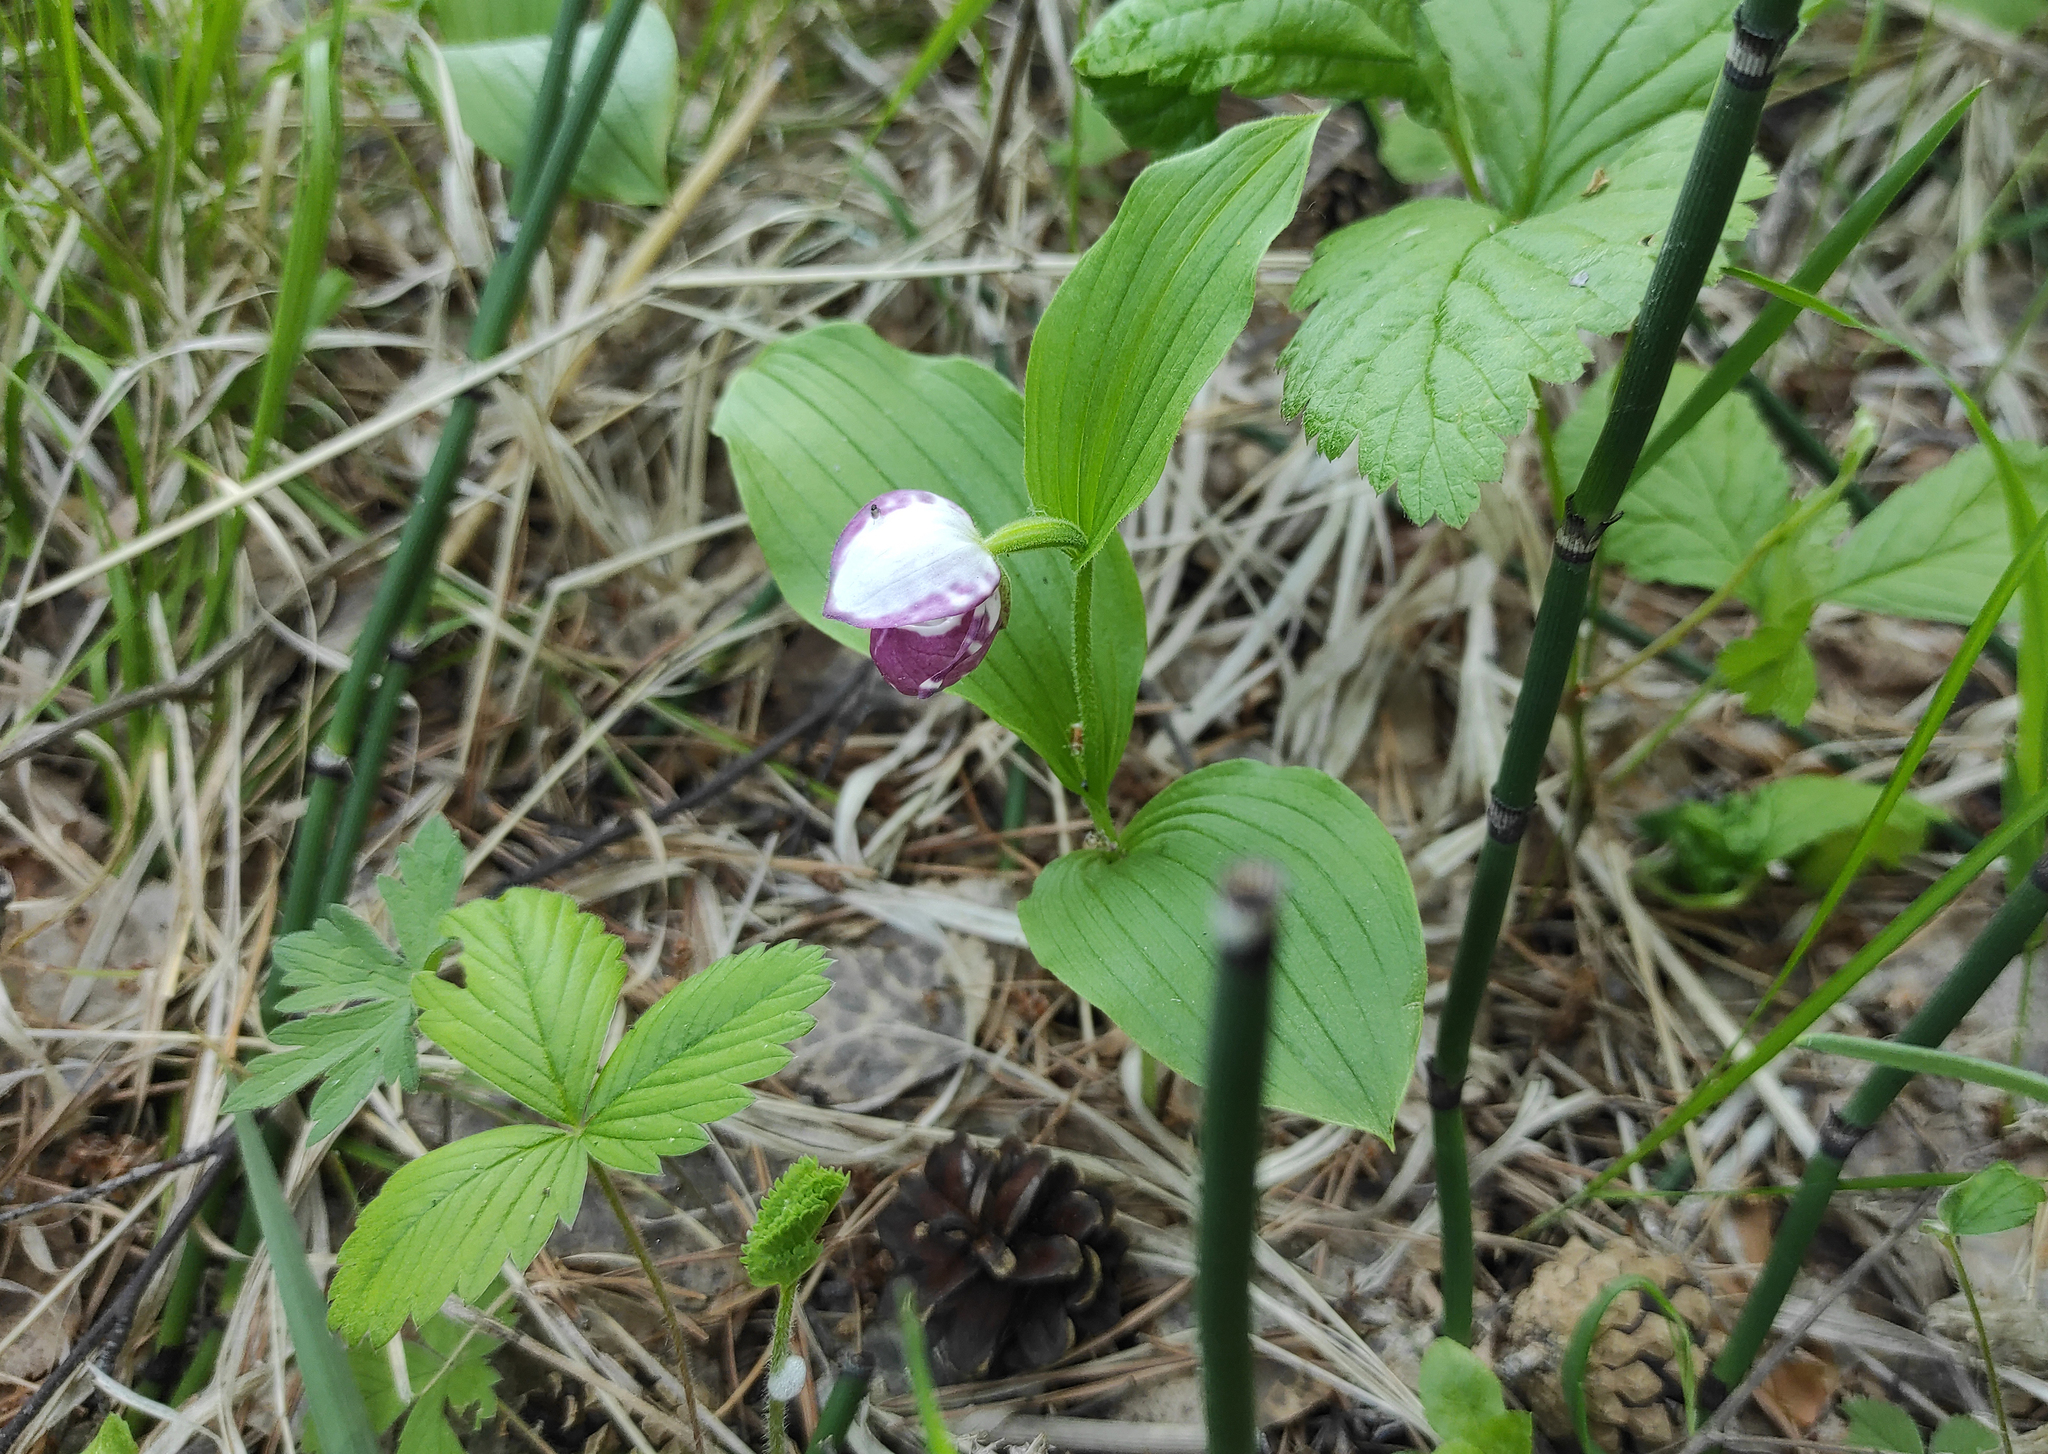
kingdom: Plantae
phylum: Tracheophyta
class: Liliopsida
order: Asparagales
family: Orchidaceae
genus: Cypripedium
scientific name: Cypripedium guttatum
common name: Pink lady slipper
